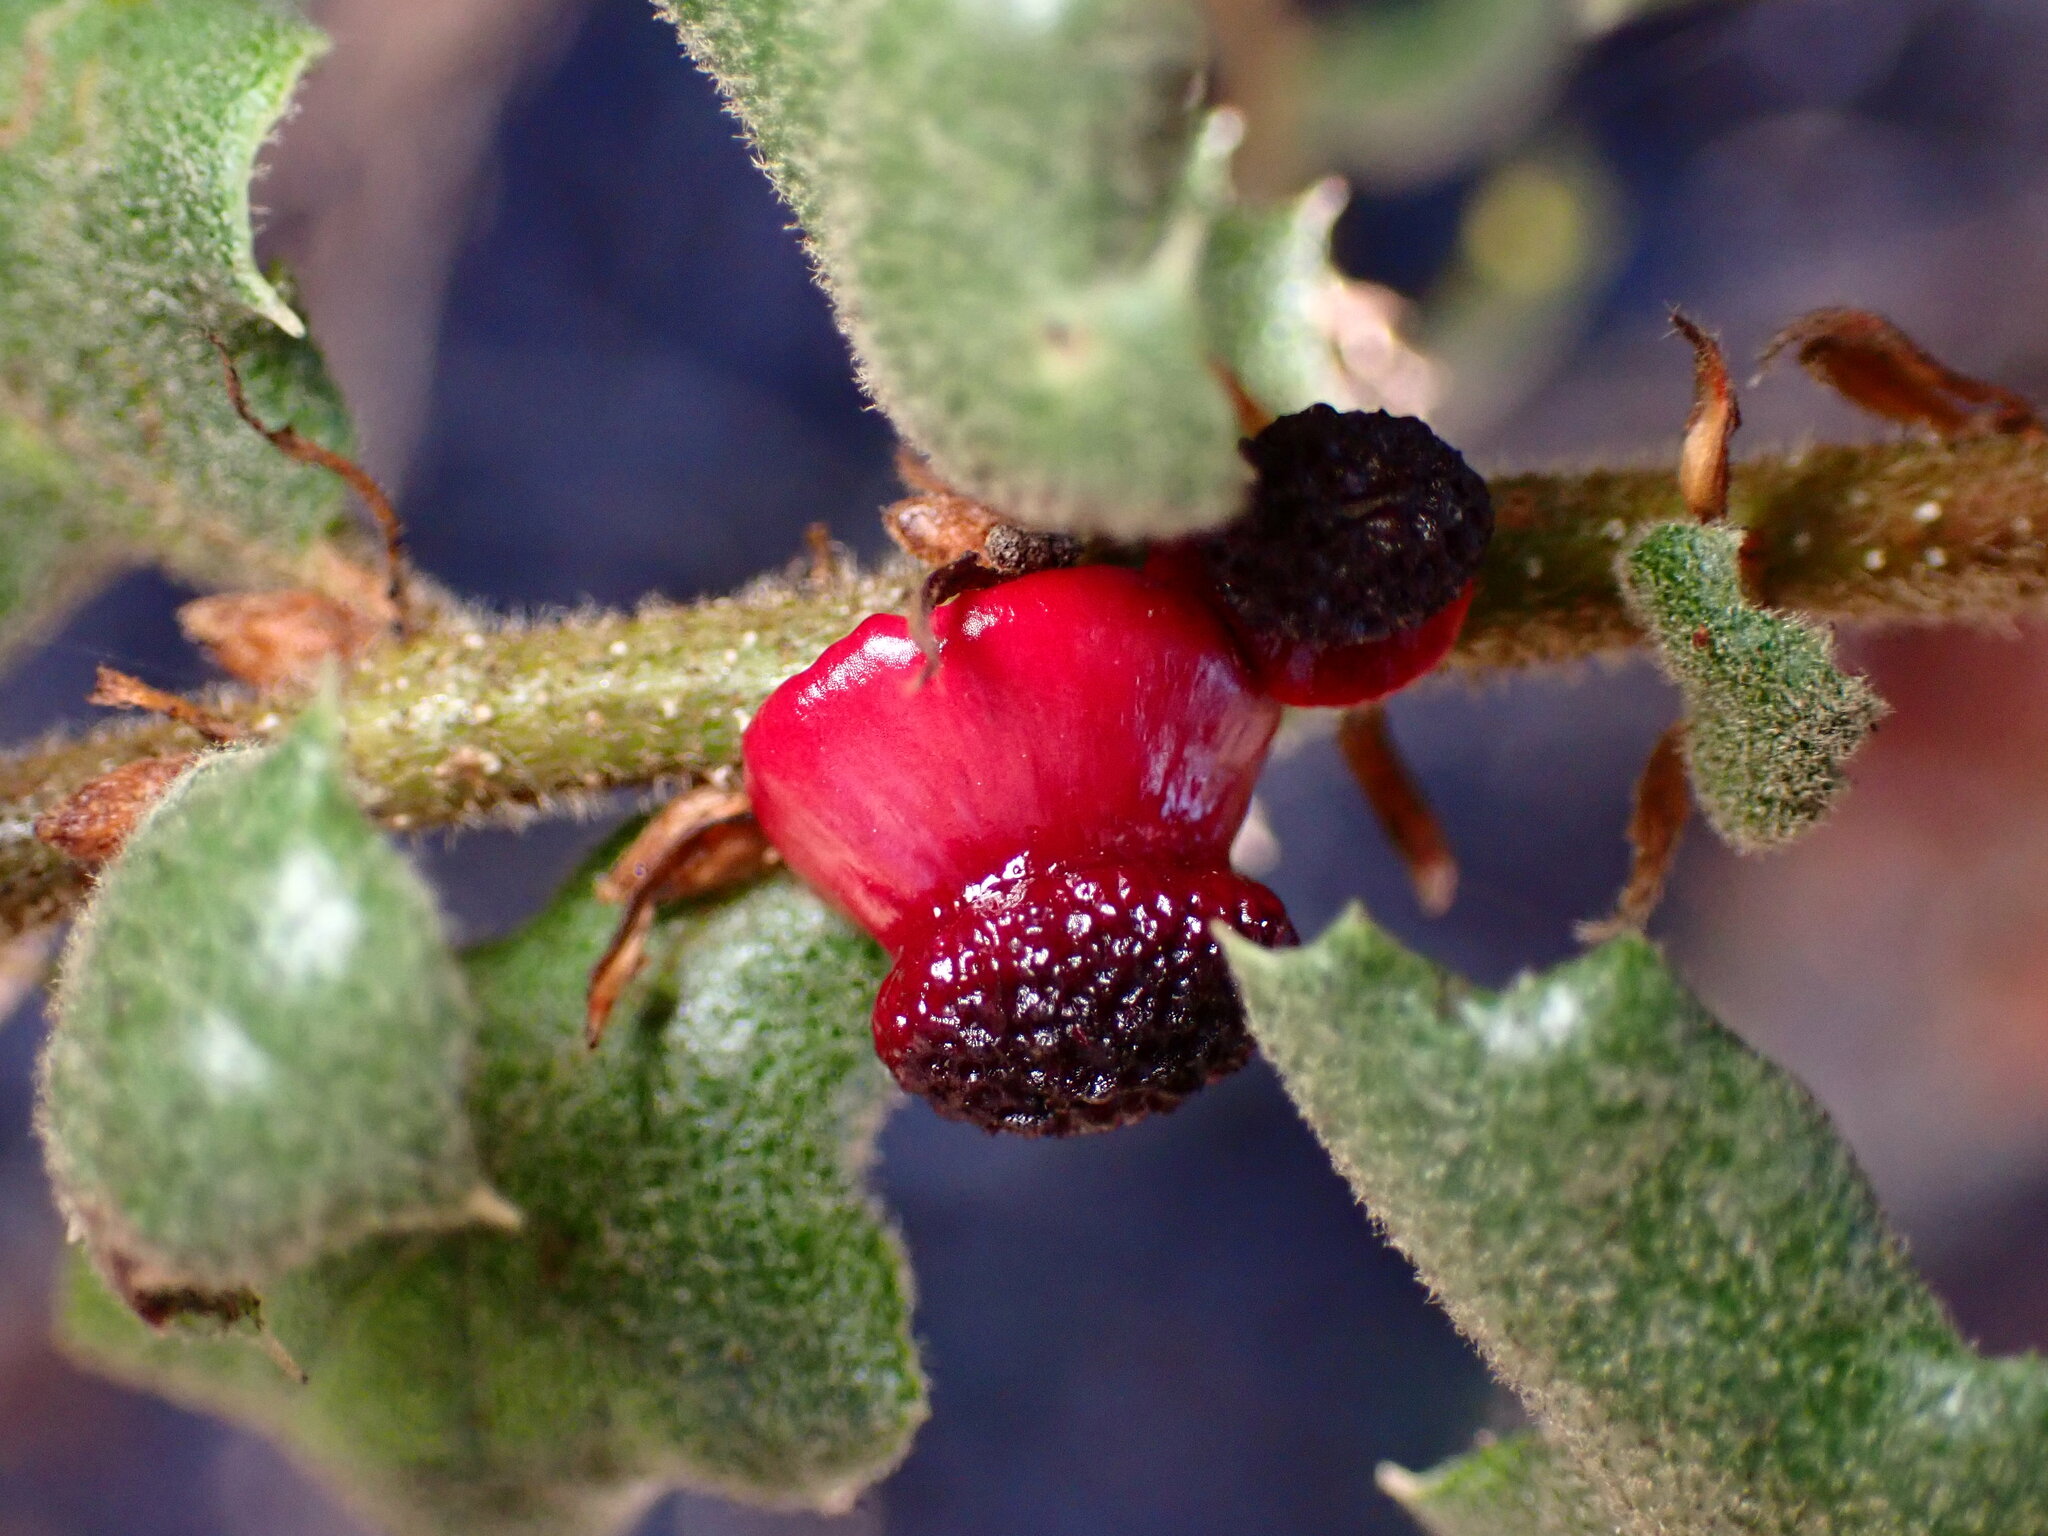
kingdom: Animalia
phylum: Arthropoda
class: Insecta
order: Hymenoptera
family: Cynipidae
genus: Disholcaspis
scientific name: Disholcaspis prehensa
